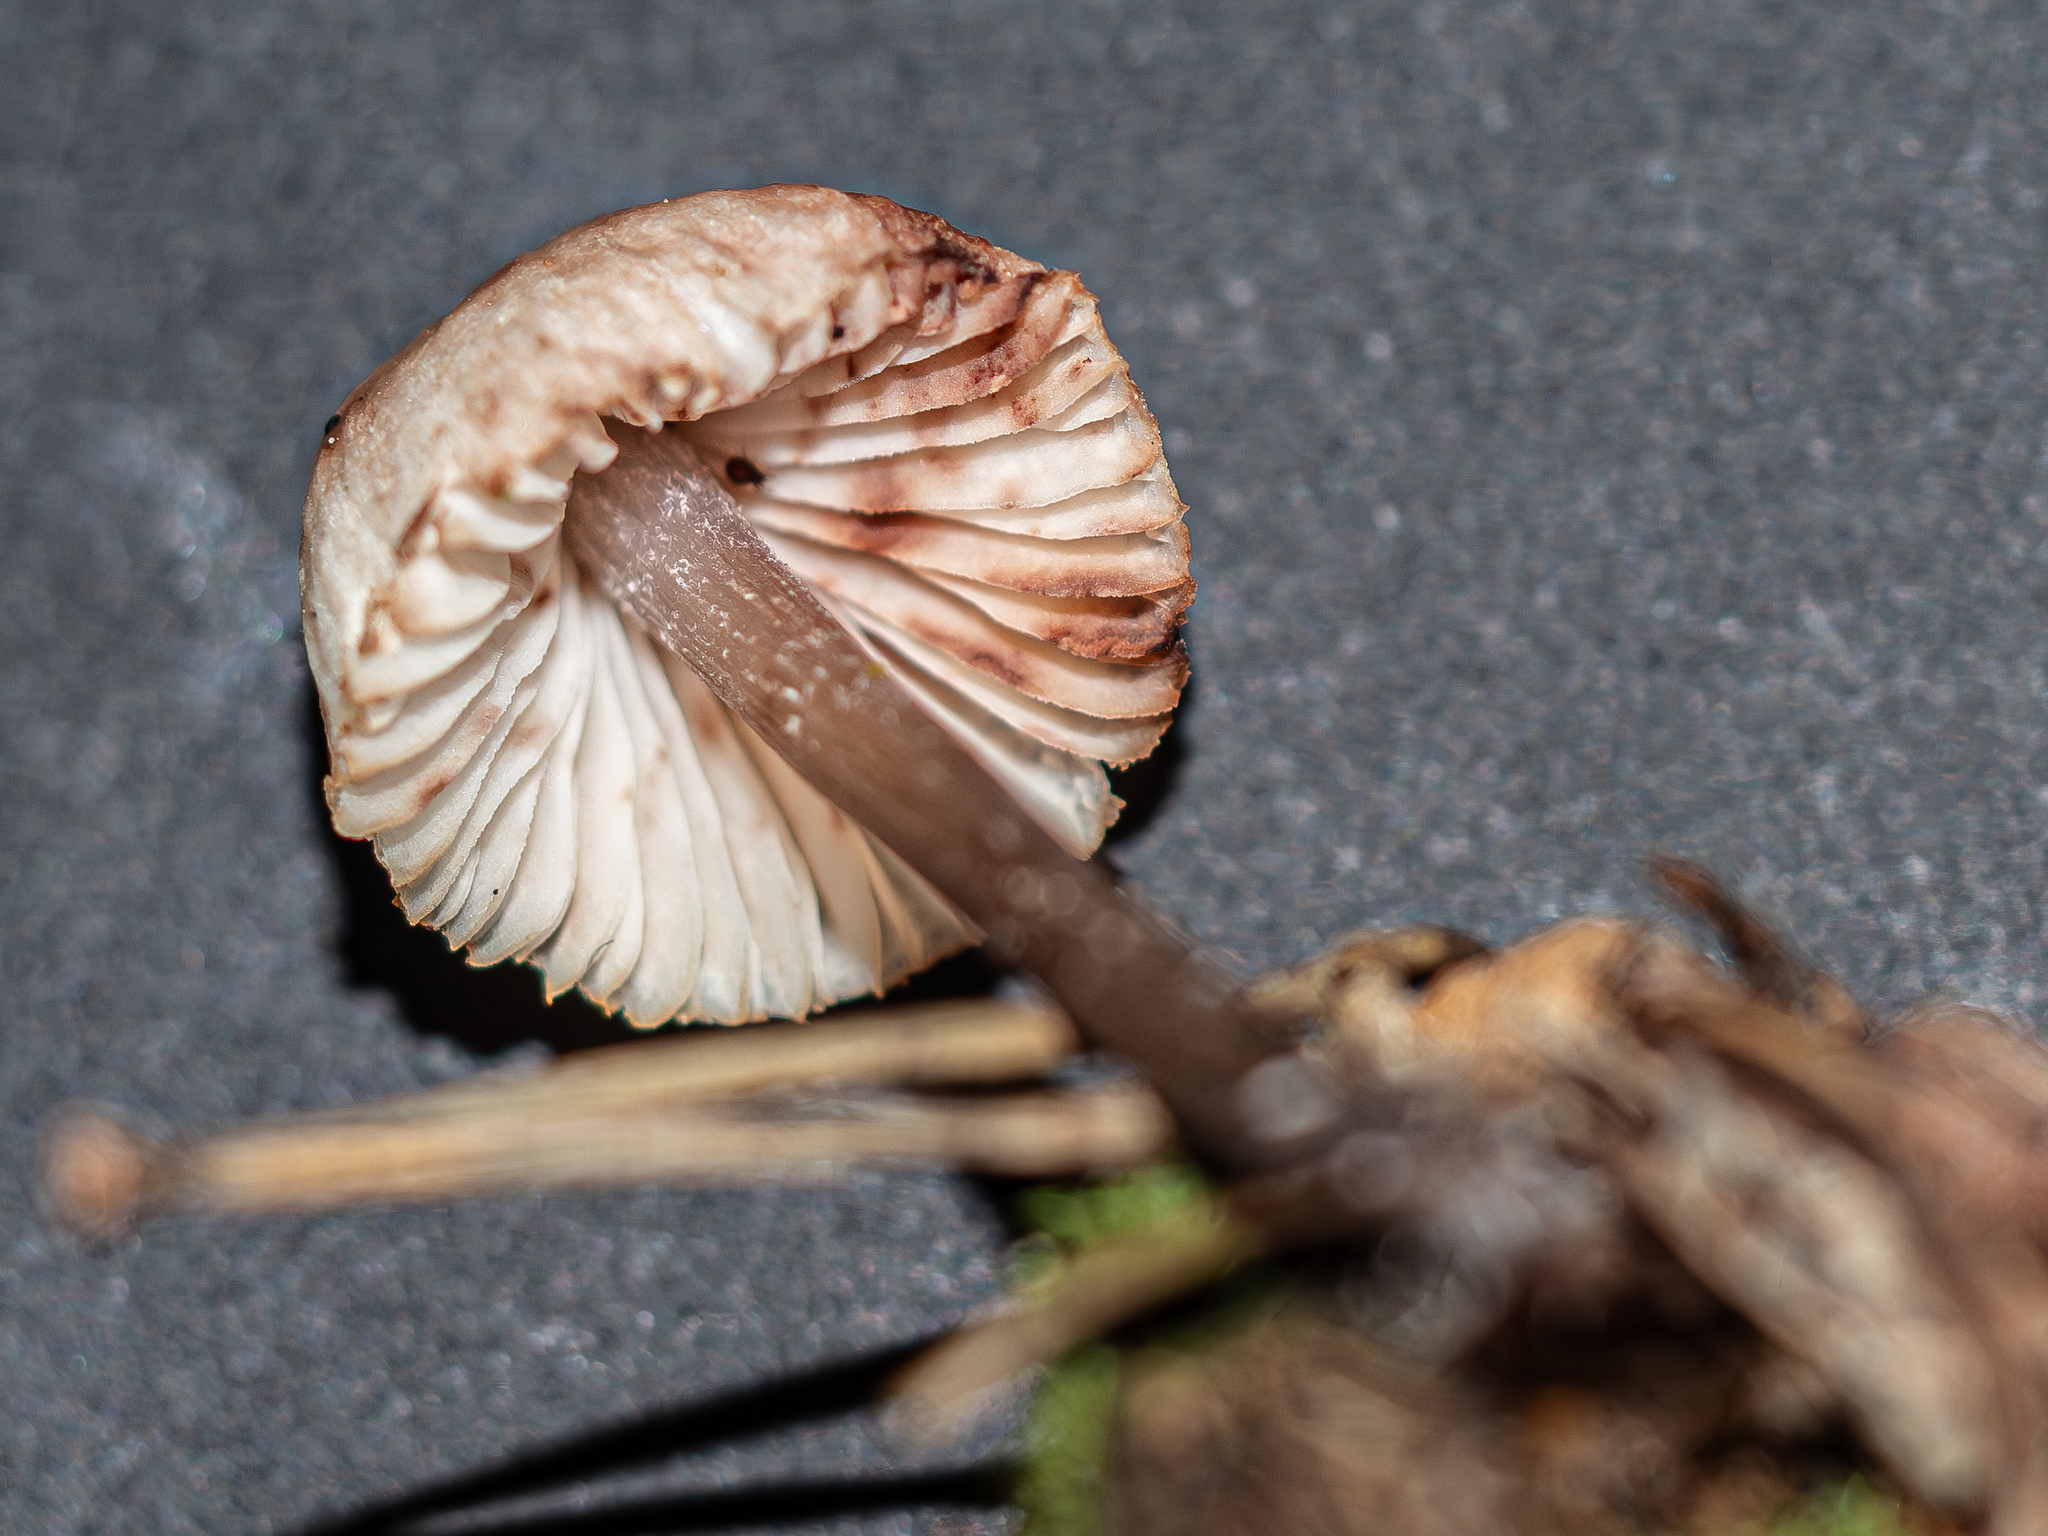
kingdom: Fungi
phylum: Basidiomycota
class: Agaricomycetes
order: Agaricales
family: Mycenaceae
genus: Mycena
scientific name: Mycena zephirus
